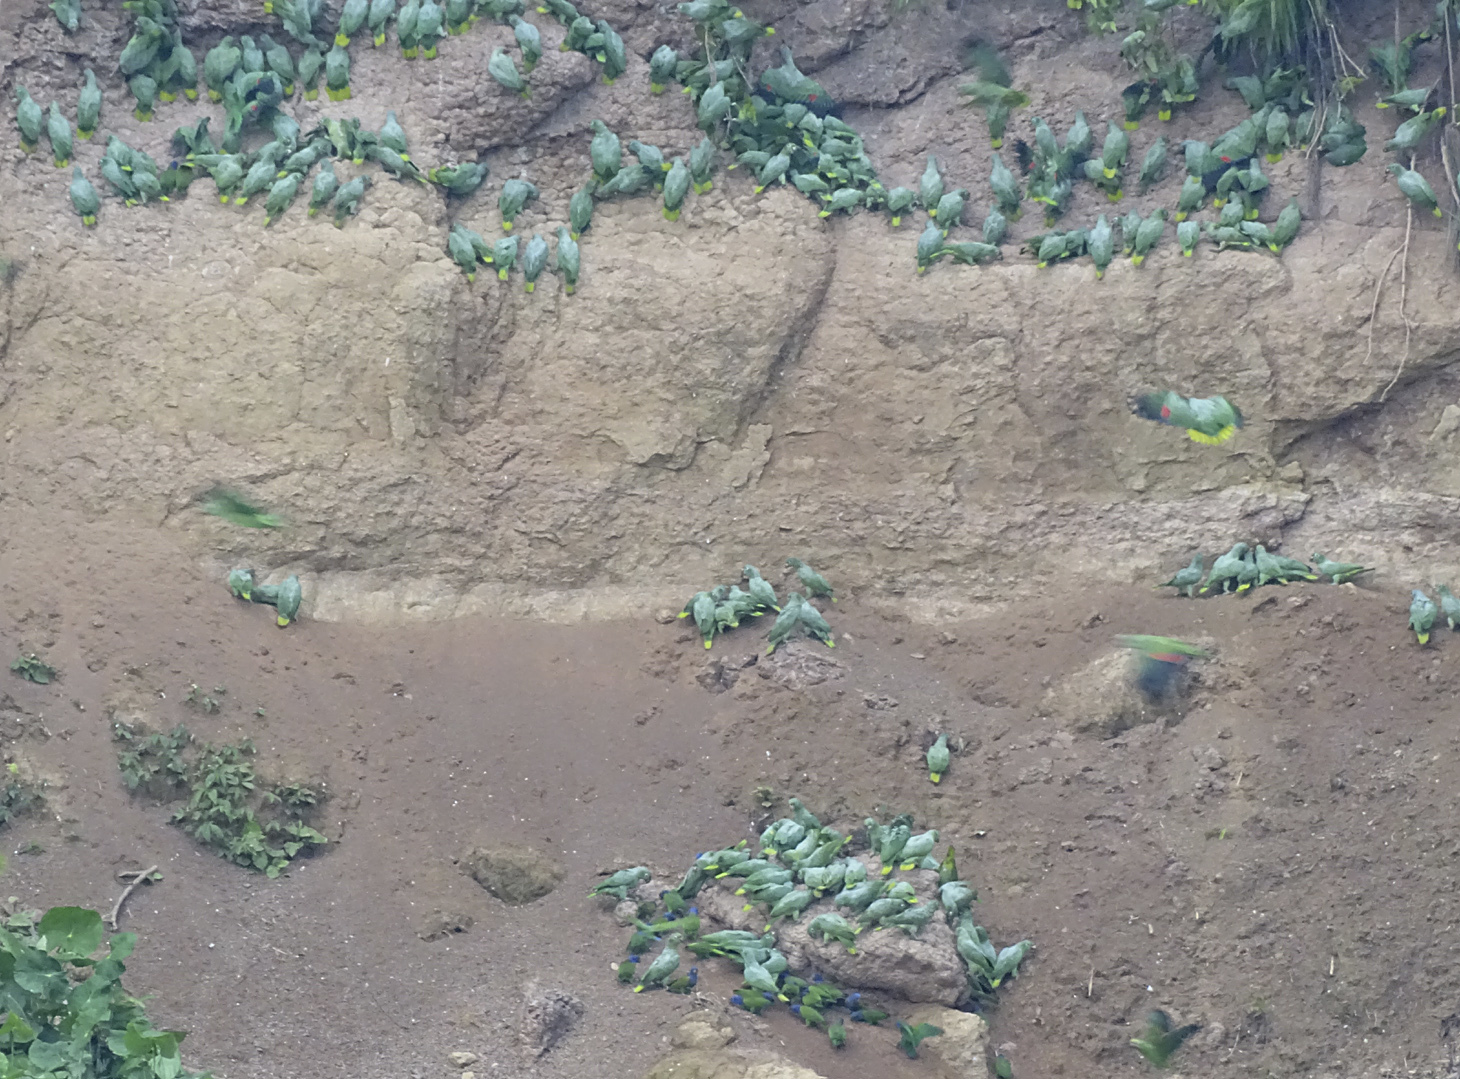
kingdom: Animalia
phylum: Chordata
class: Aves
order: Psittaciformes
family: Psittacidae
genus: Amazona
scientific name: Amazona farinosa
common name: Mealy parrot
